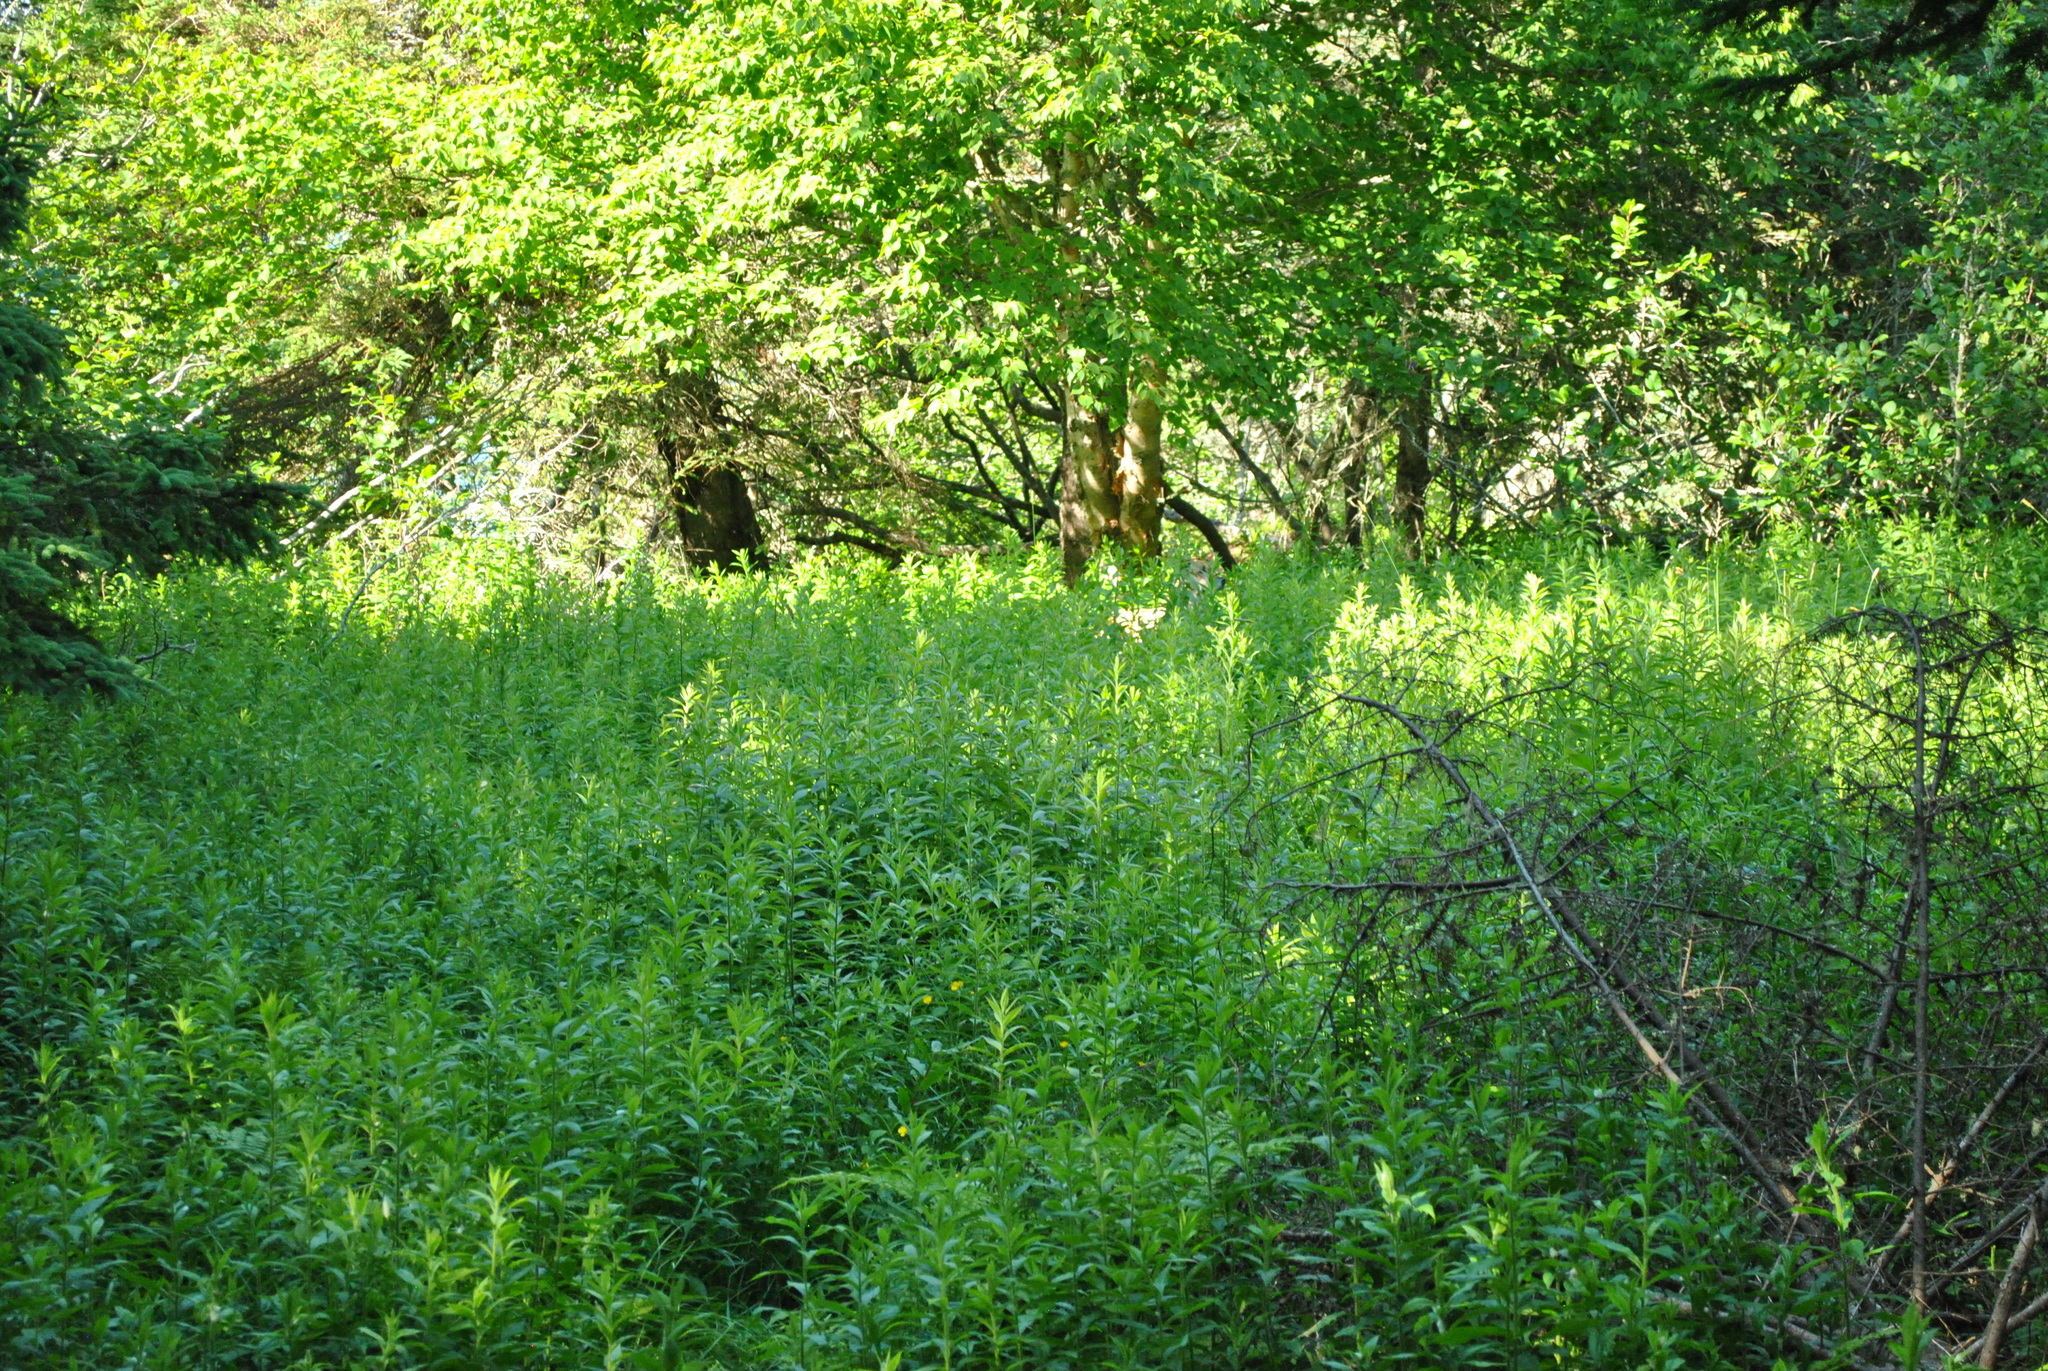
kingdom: Plantae
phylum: Tracheophyta
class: Magnoliopsida
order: Asterales
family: Asteraceae
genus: Solidago
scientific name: Solidago rugosa
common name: Rough-stemmed goldenrod
